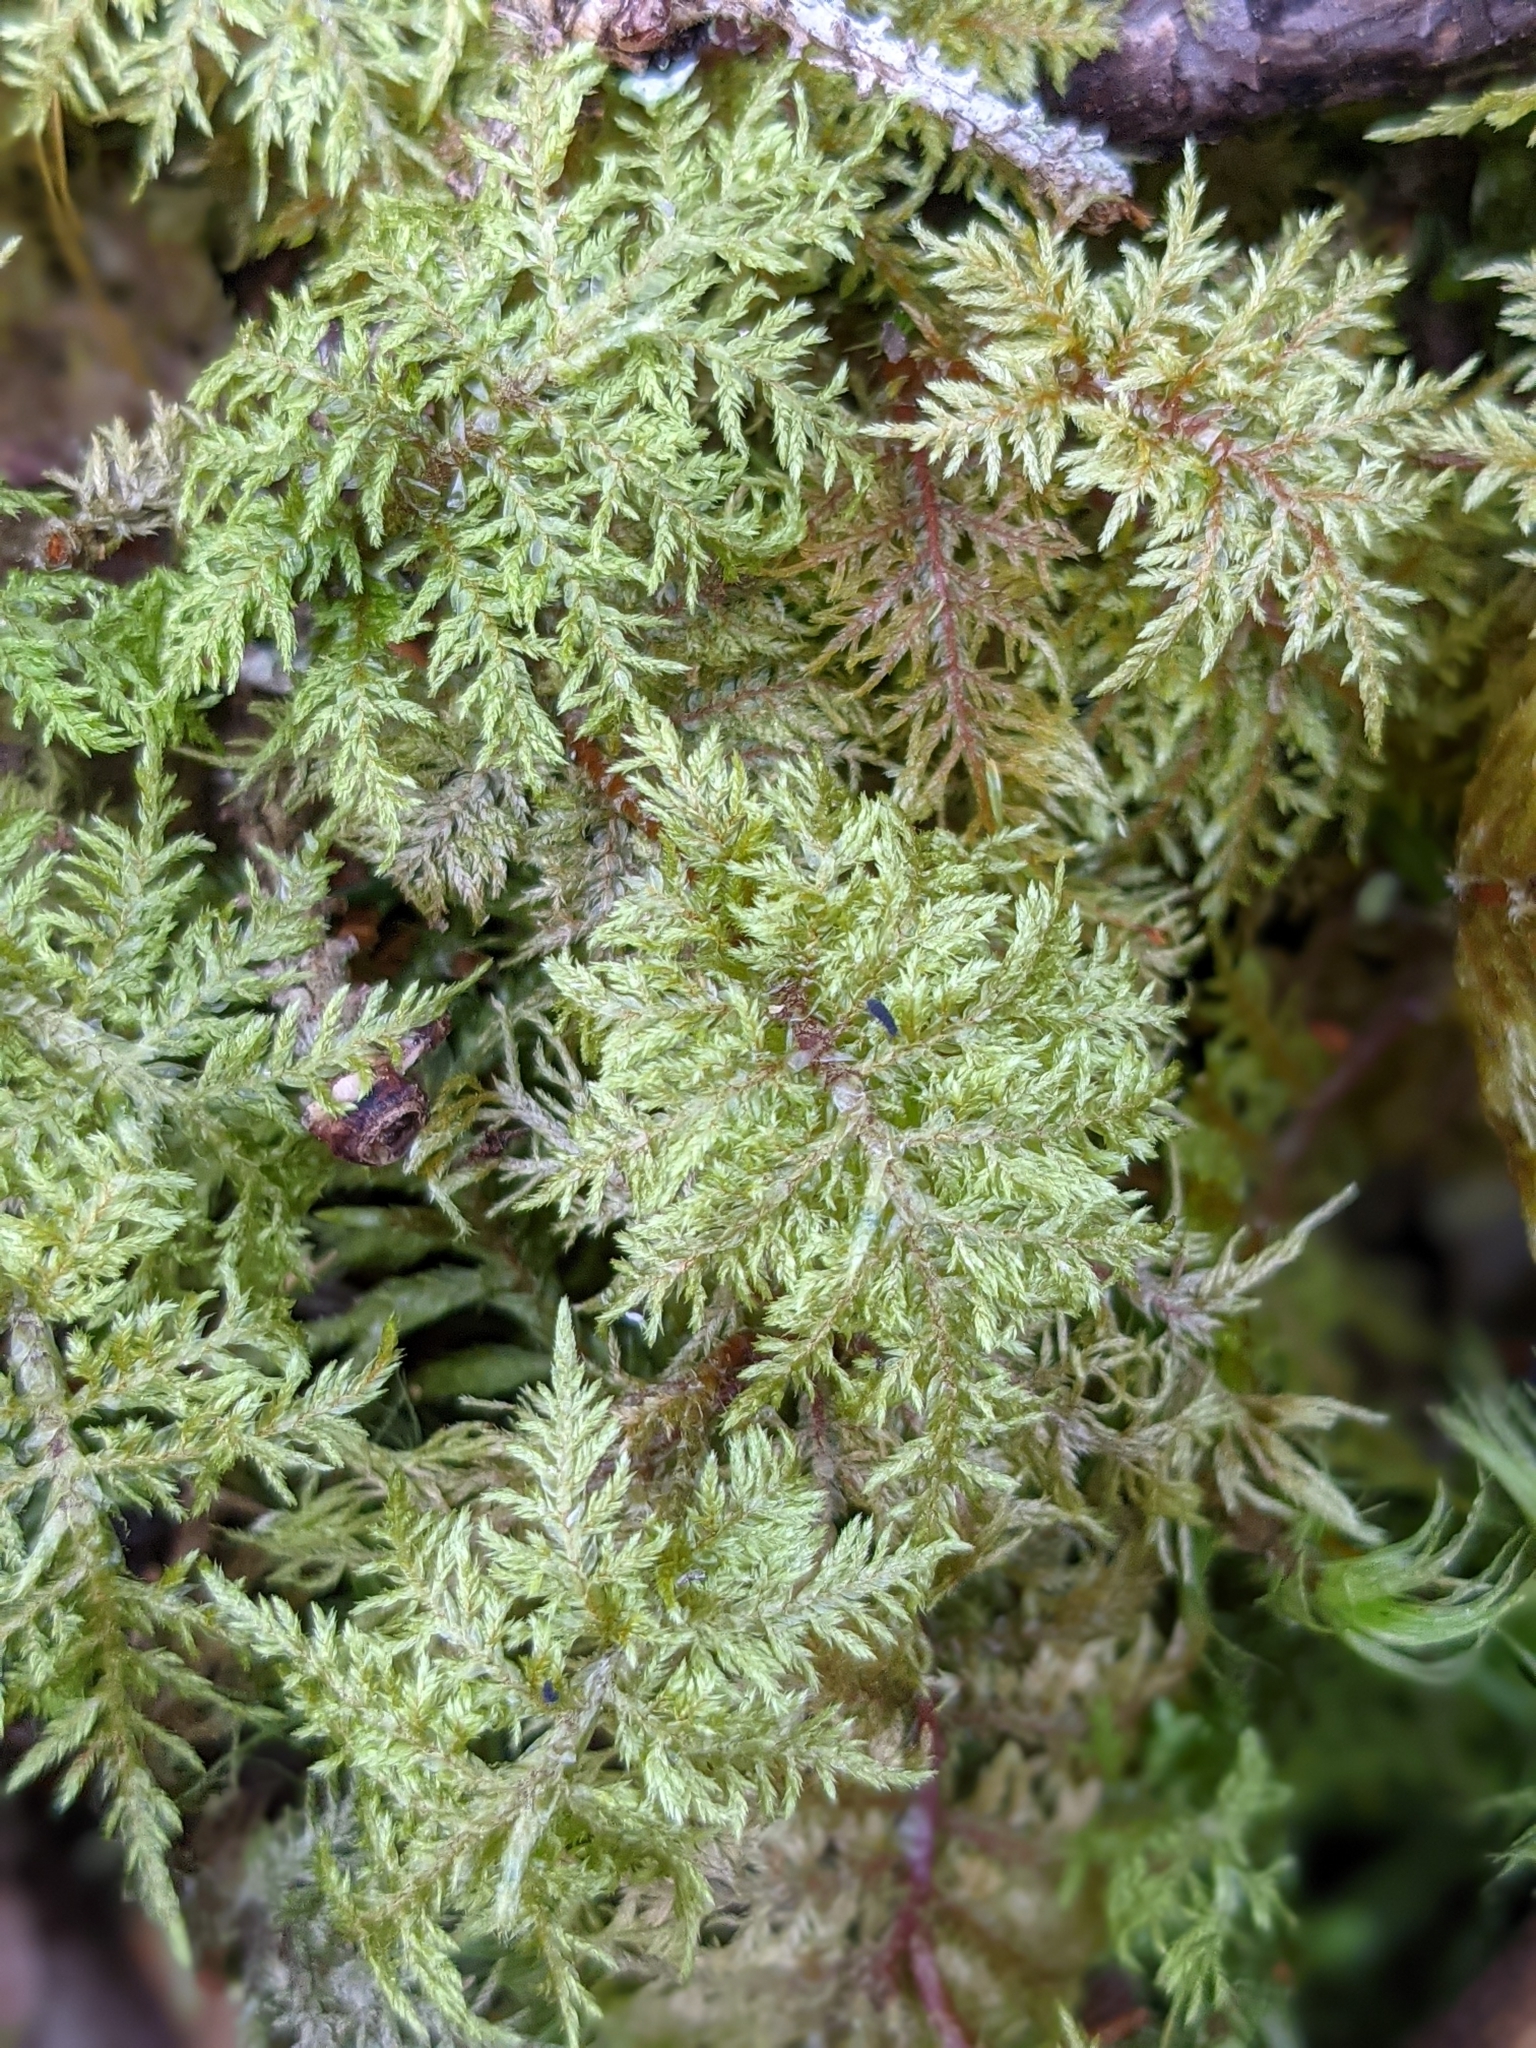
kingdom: Plantae
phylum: Bryophyta
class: Bryopsida
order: Hypnales
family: Hylocomiaceae
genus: Hylocomium
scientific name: Hylocomium splendens
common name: Stairstep moss
